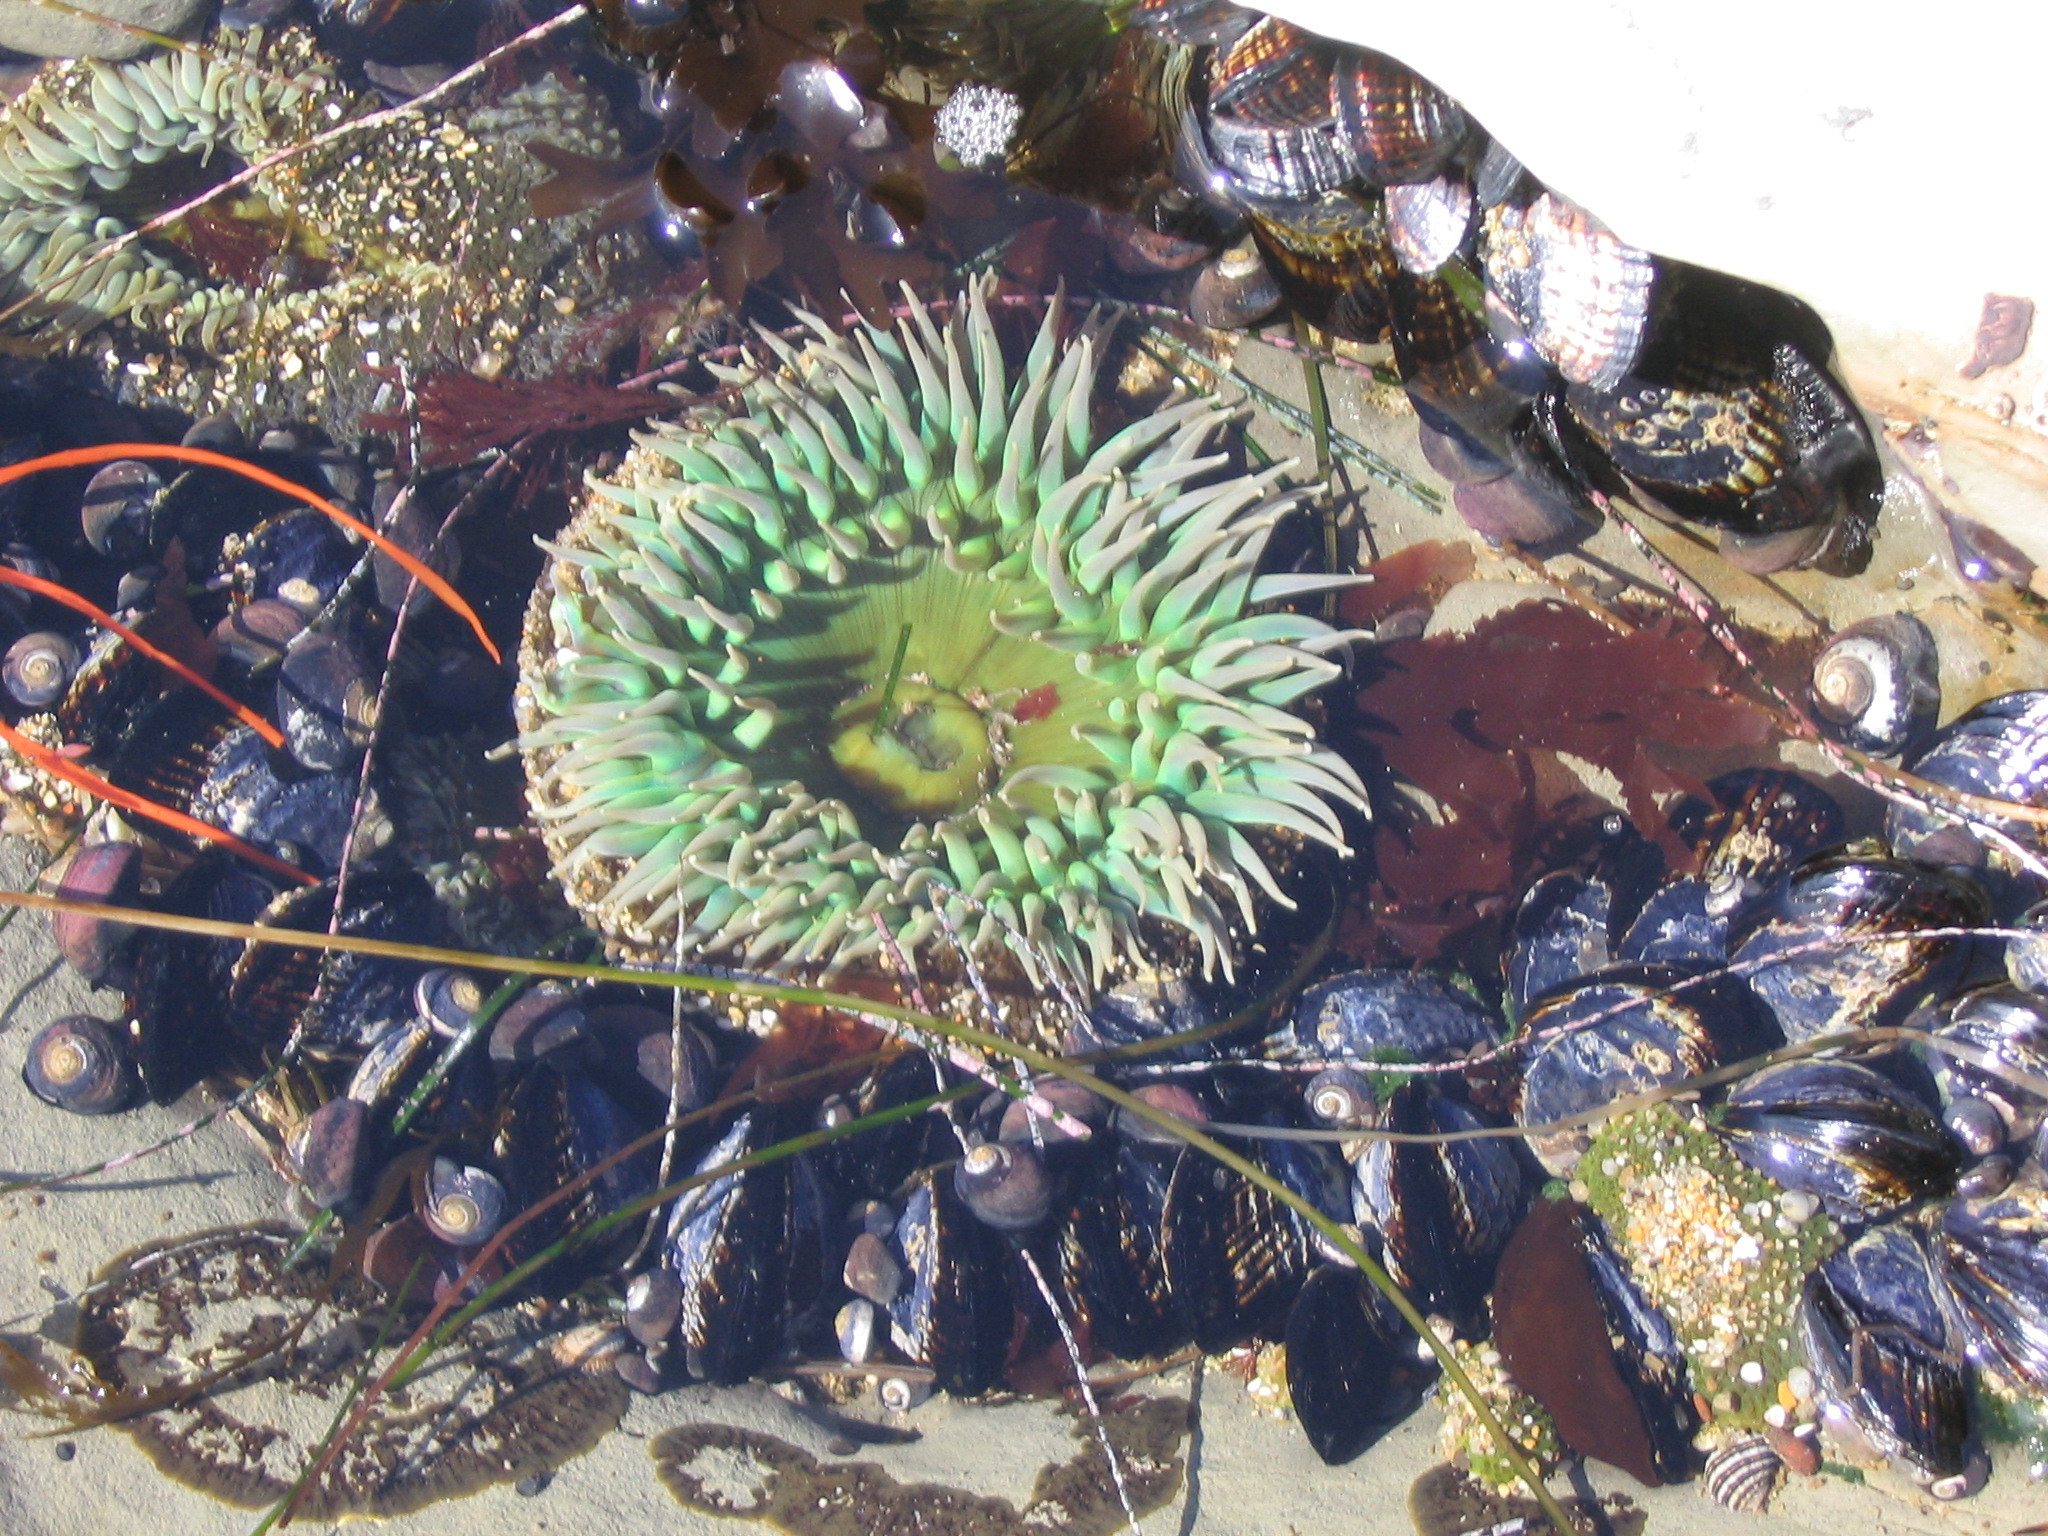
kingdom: Animalia
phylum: Cnidaria
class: Anthozoa
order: Actiniaria
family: Actiniidae
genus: Anthopleura
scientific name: Anthopleura xanthogrammica
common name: Giant green anemone
